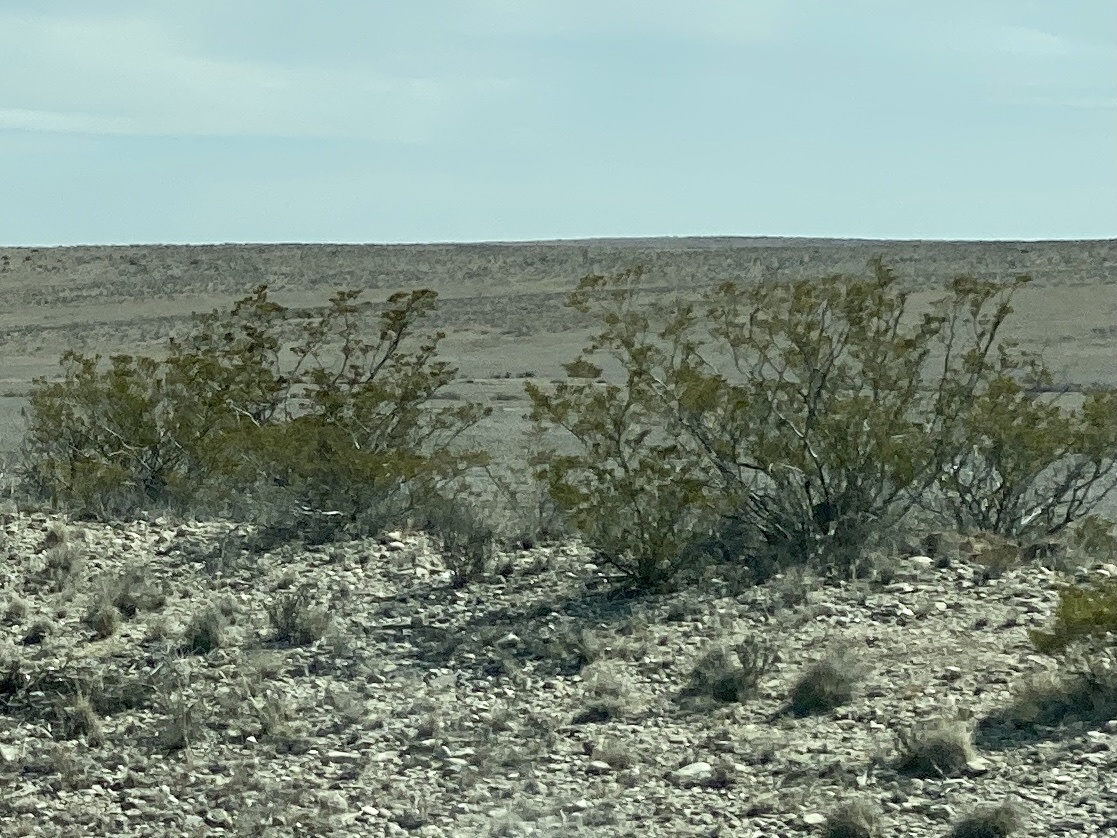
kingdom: Plantae
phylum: Tracheophyta
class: Magnoliopsida
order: Zygophyllales
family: Zygophyllaceae
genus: Larrea
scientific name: Larrea tridentata
